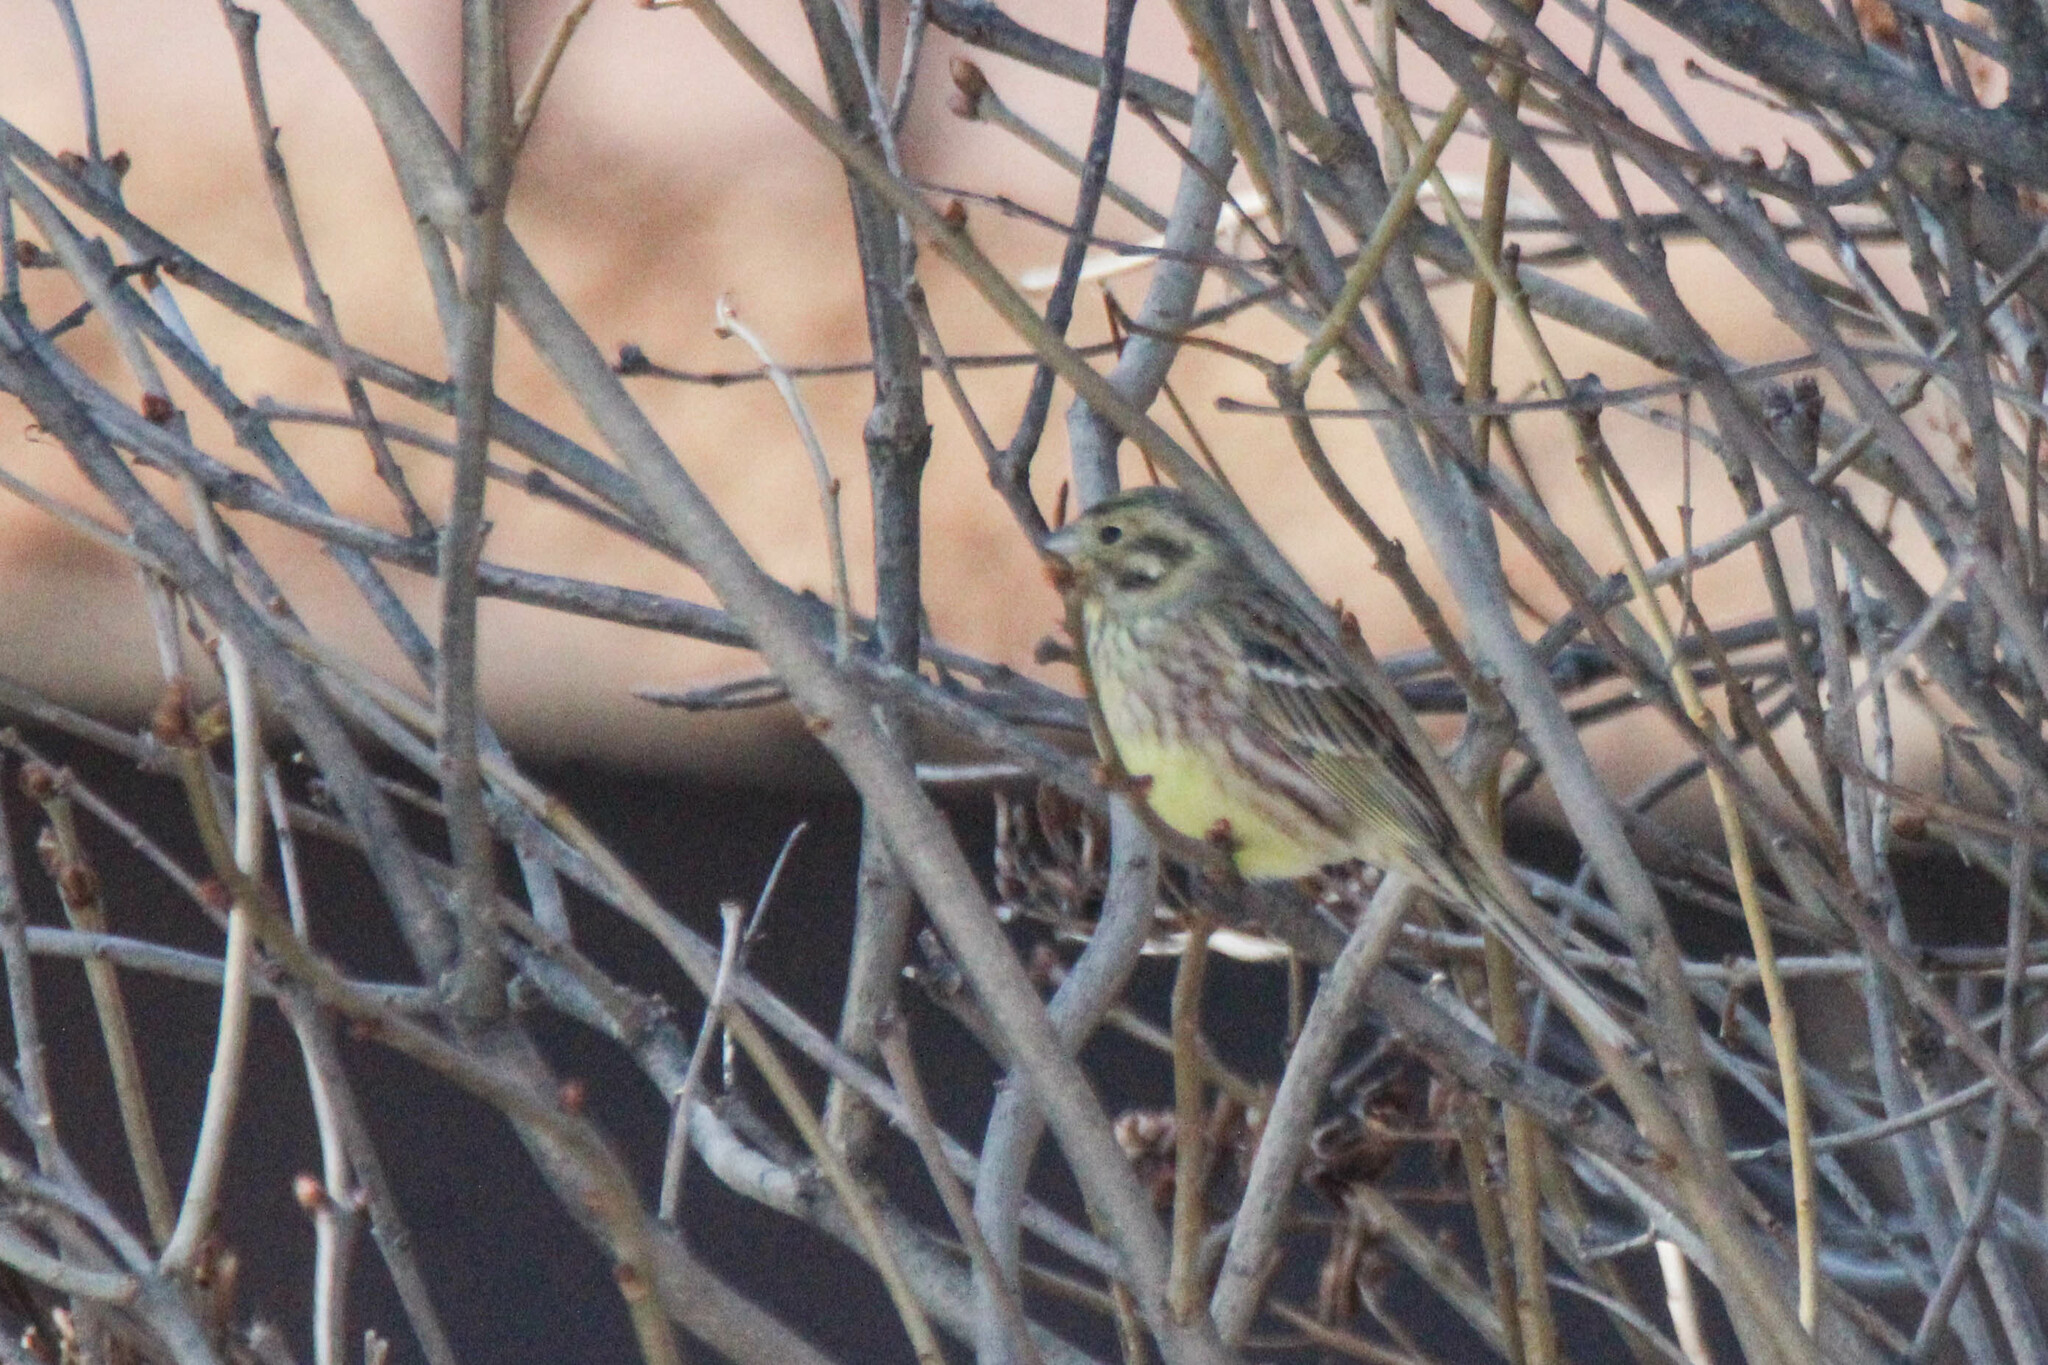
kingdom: Animalia
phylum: Chordata
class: Aves
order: Passeriformes
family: Emberizidae
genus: Emberiza
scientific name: Emberiza
